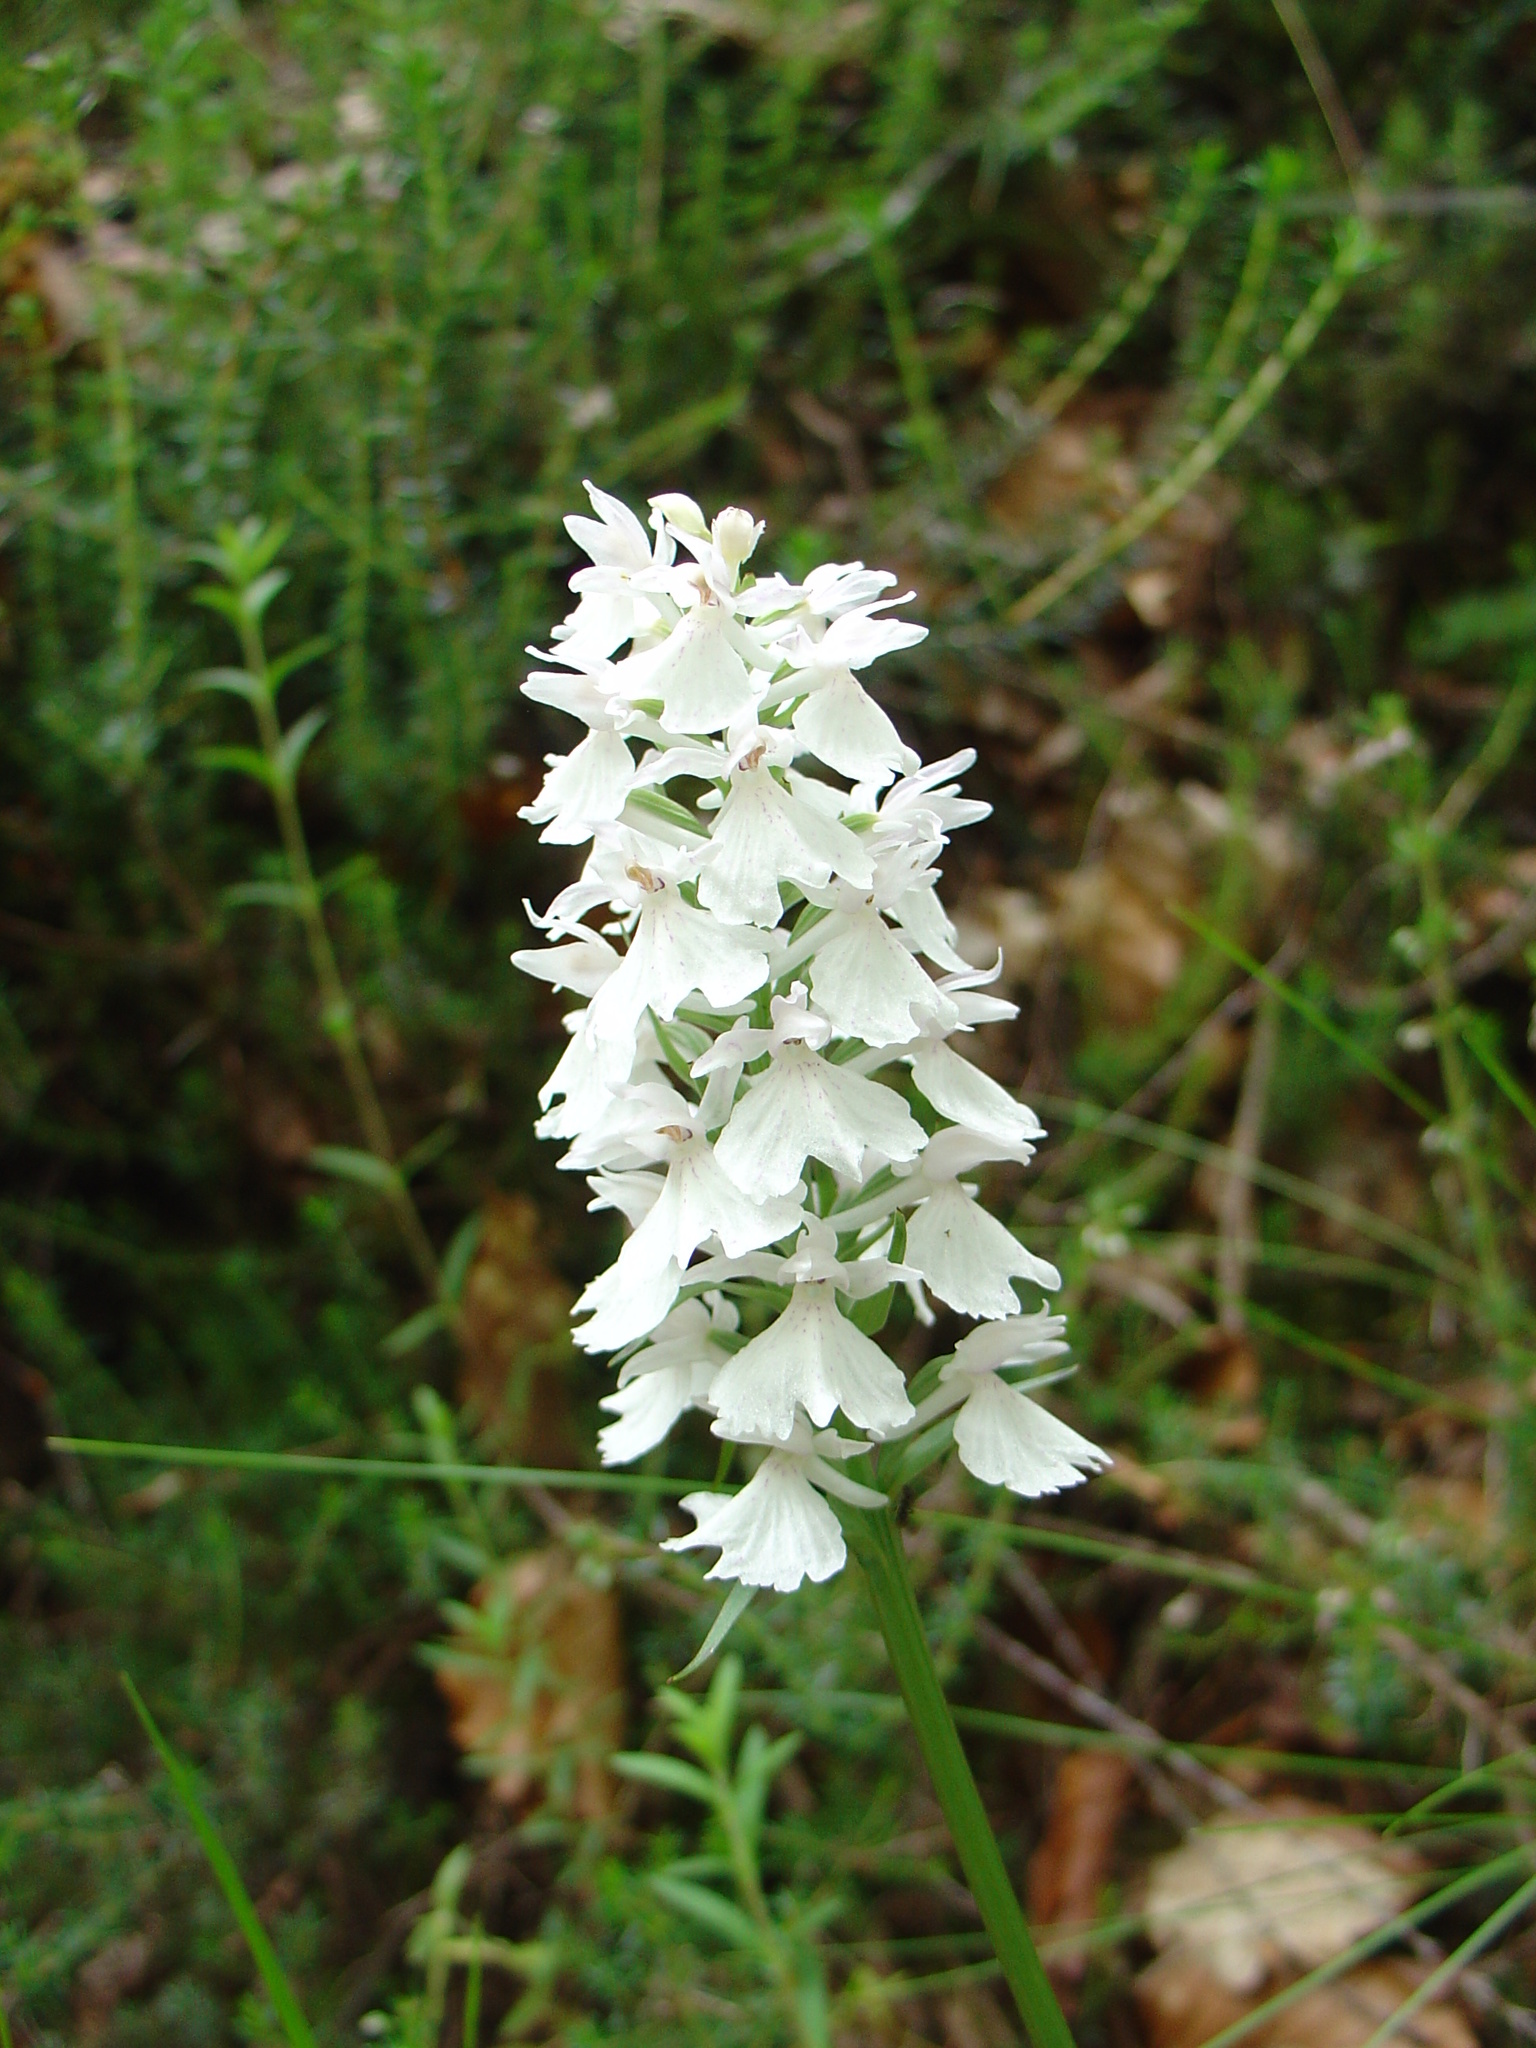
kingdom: Plantae
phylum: Tracheophyta
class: Liliopsida
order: Asparagales
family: Orchidaceae
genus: Dactylorhiza
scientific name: Dactylorhiza maculata
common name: Heath spotted-orchid
